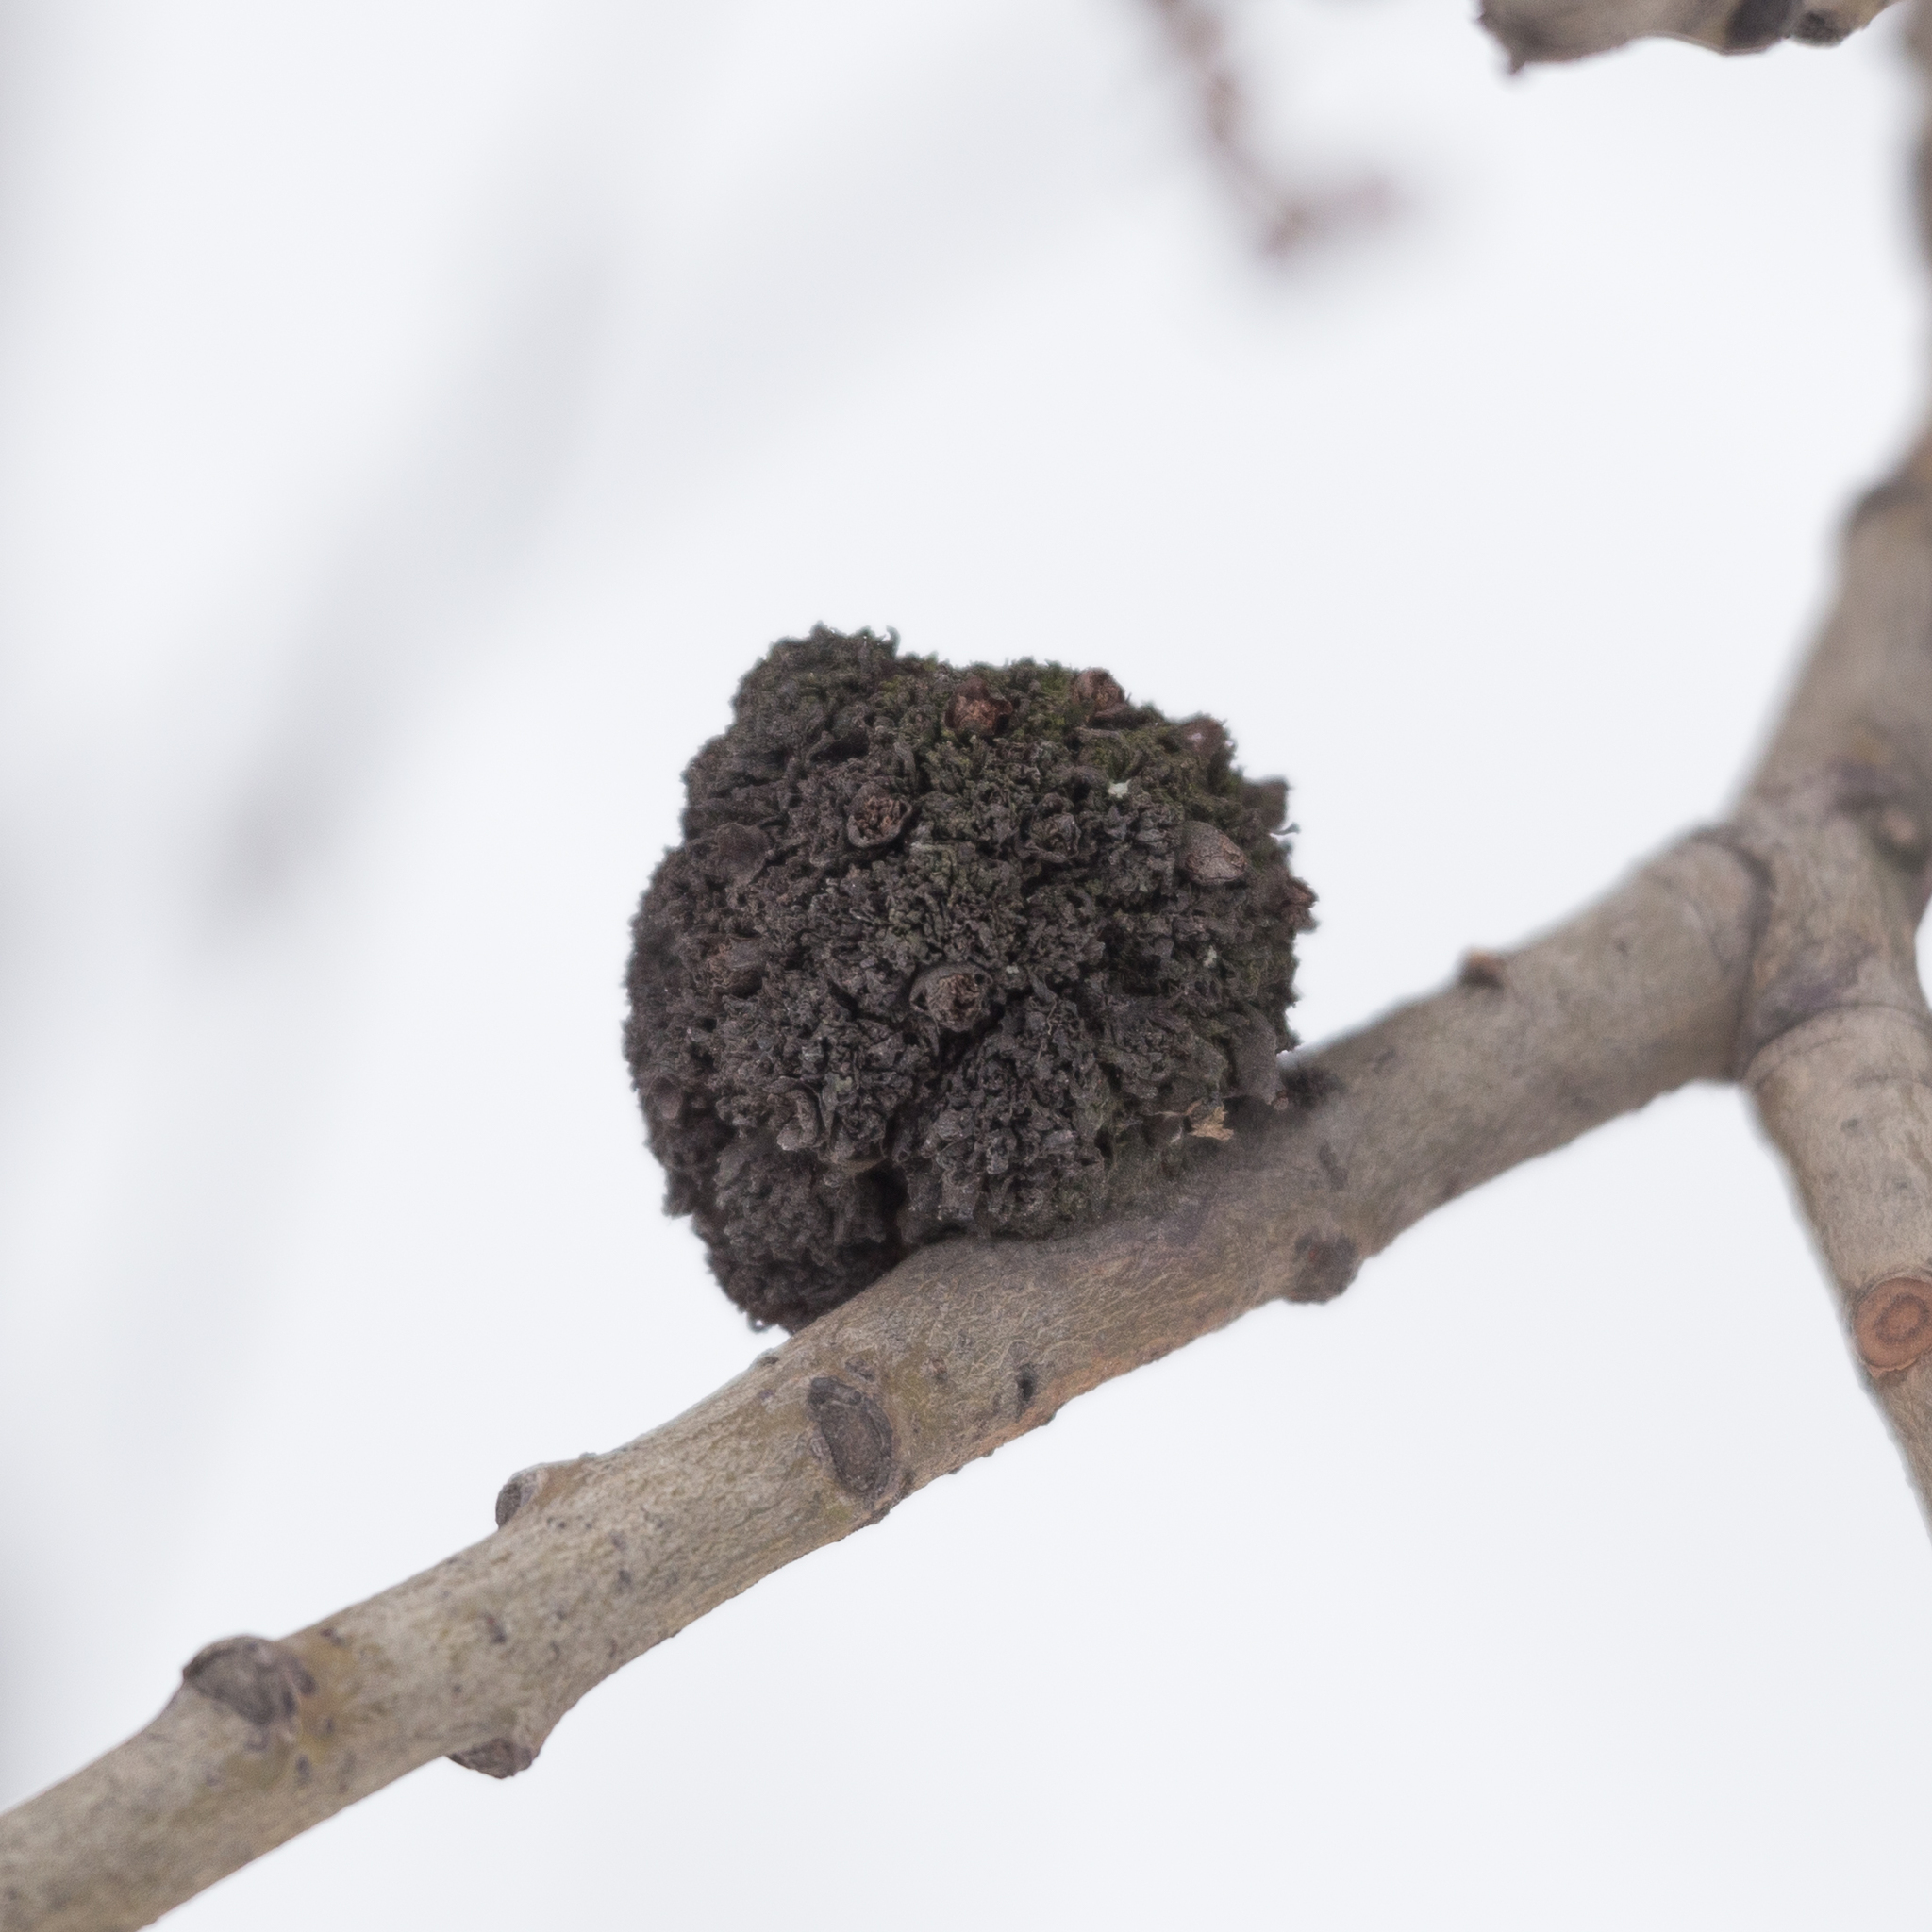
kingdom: Animalia
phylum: Arthropoda
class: Arachnida
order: Trombidiformes
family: Eriophyidae
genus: Stenacis
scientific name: Stenacis triradiatus
